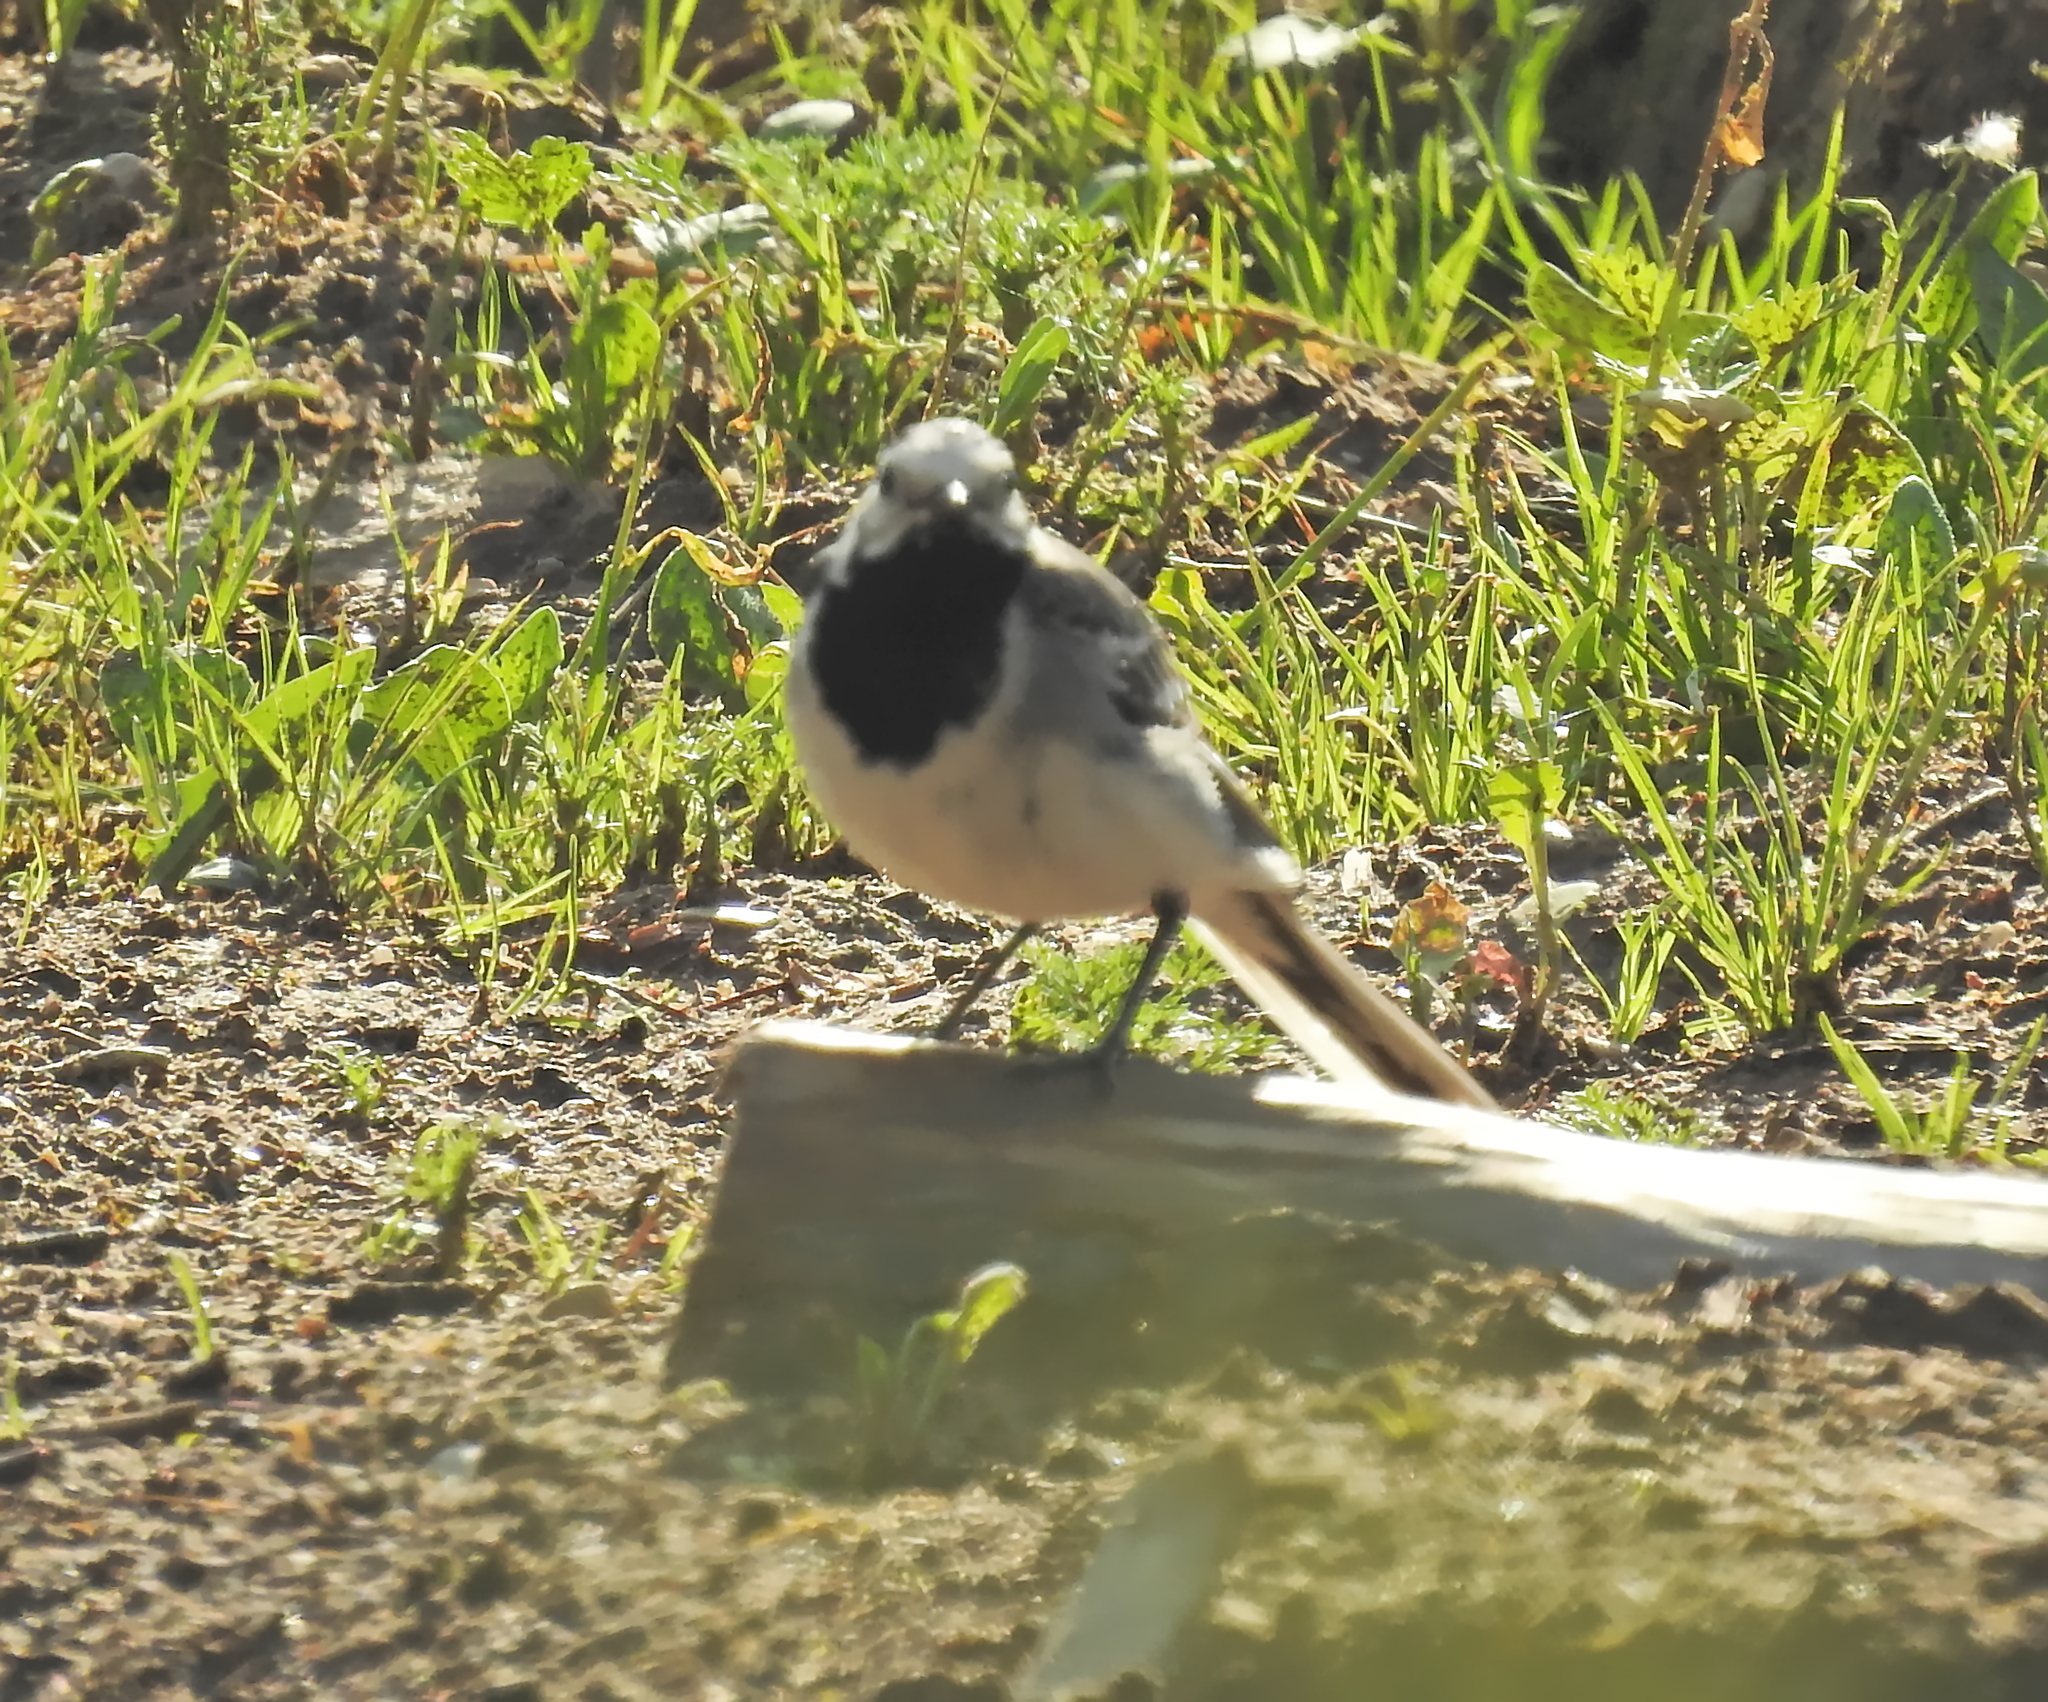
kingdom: Animalia
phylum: Chordata
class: Aves
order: Passeriformes
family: Motacillidae
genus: Motacilla
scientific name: Motacilla alba
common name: White wagtail
